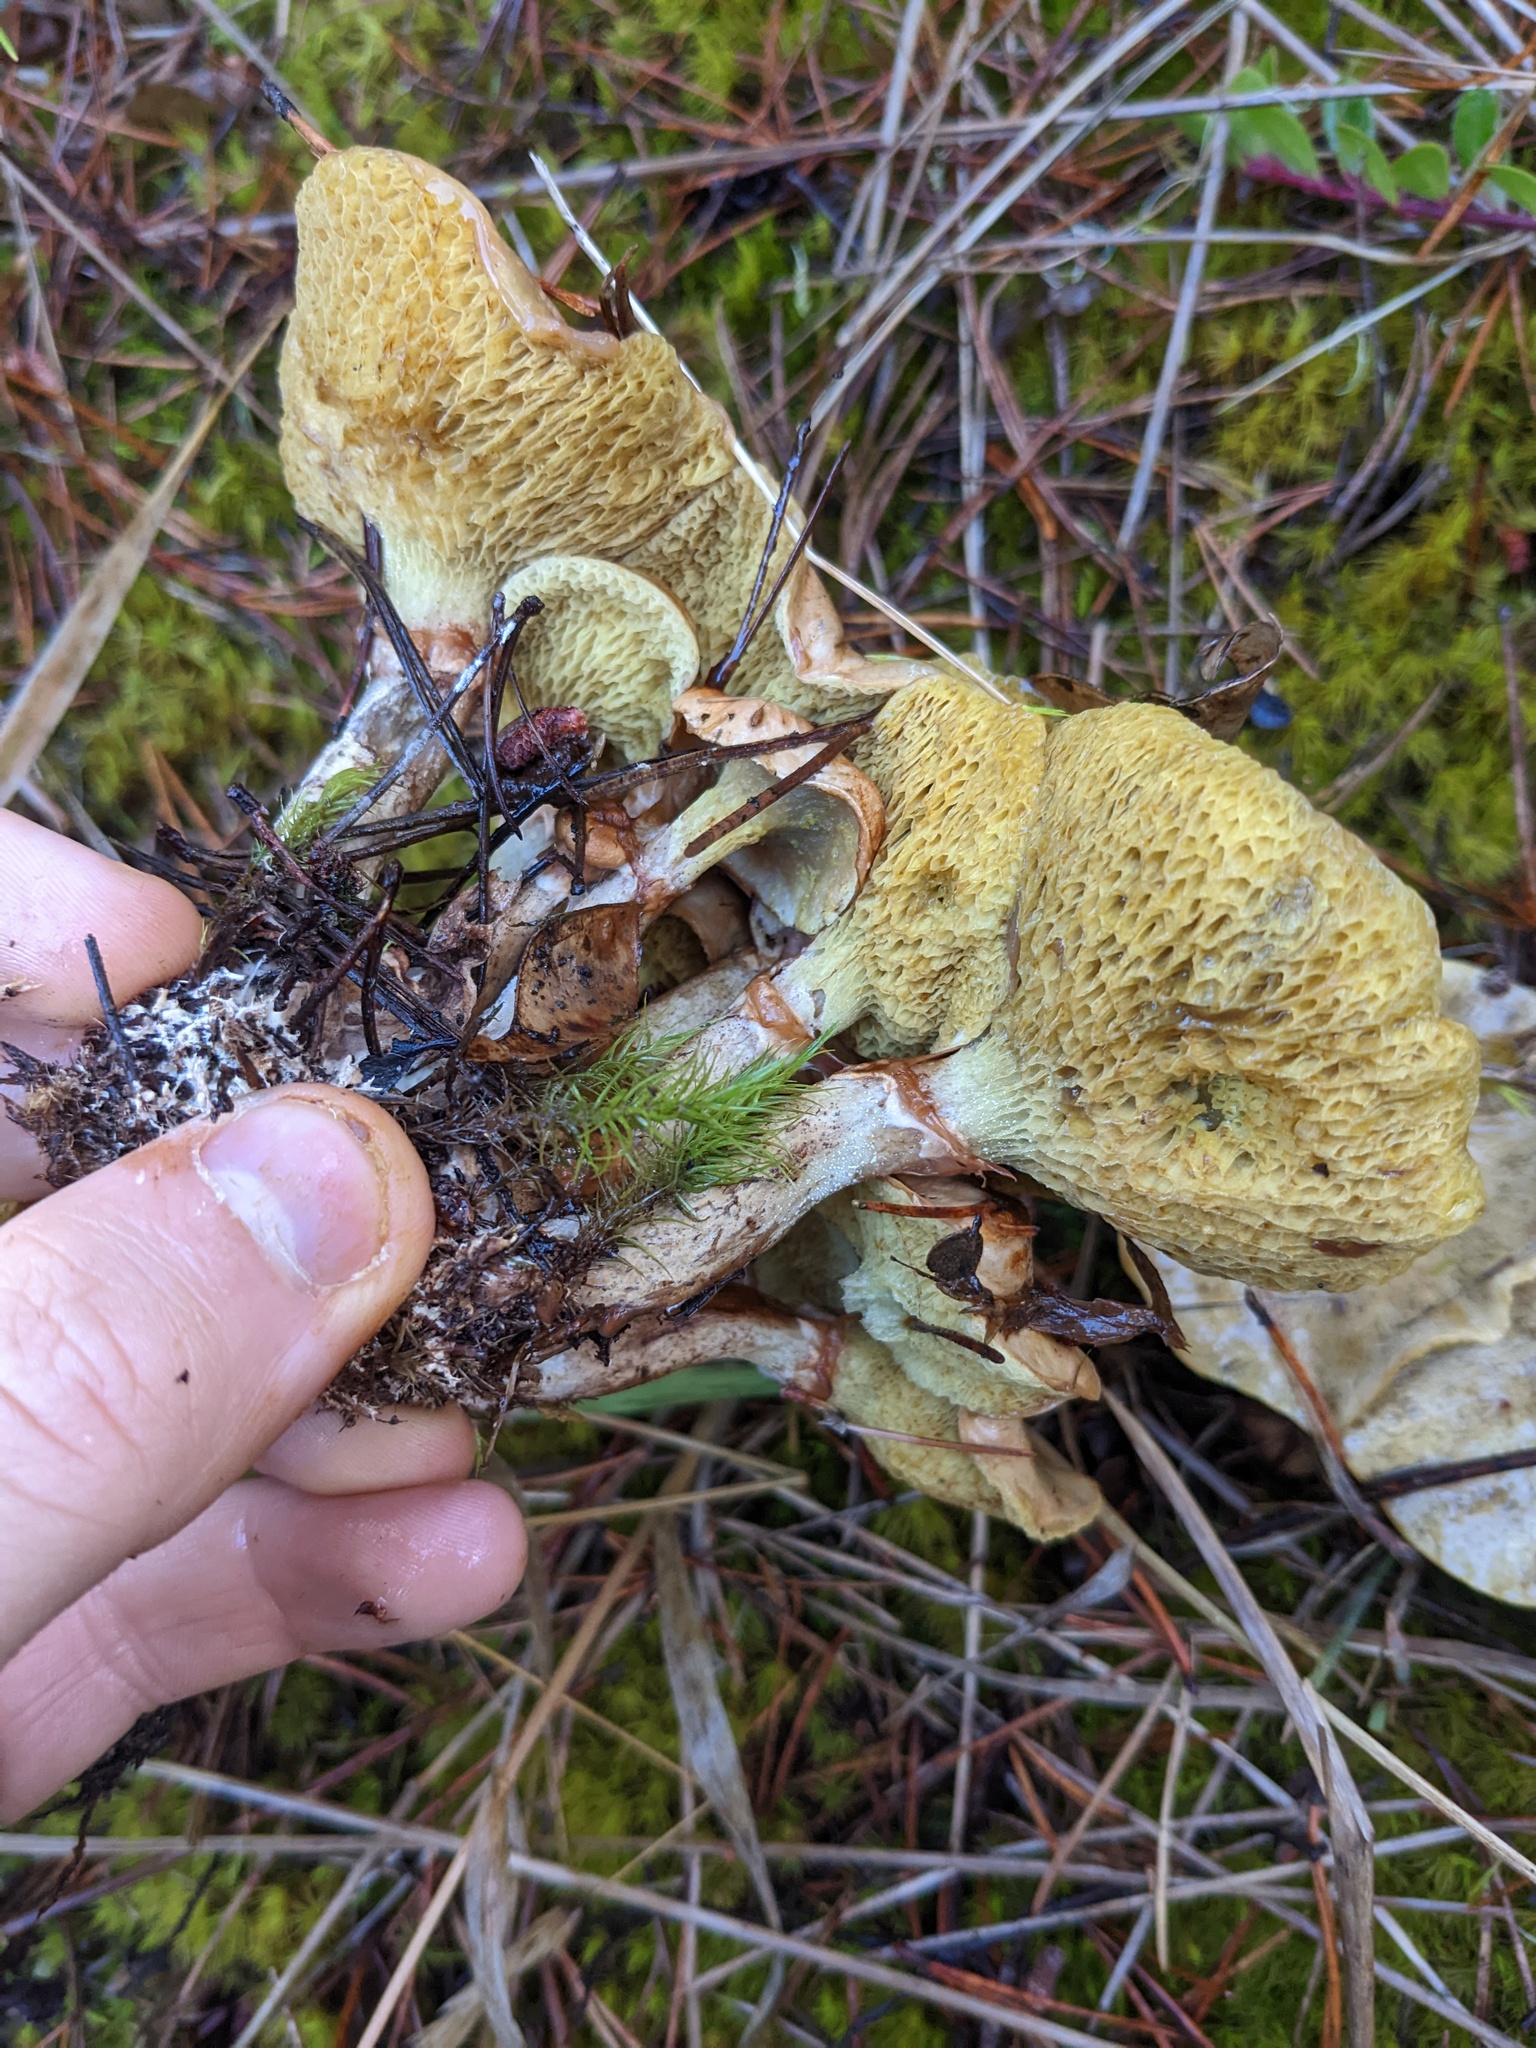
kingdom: Fungi
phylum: Basidiomycota
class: Agaricomycetes
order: Boletales
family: Suillaceae
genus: Suillus
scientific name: Suillus umbonatus
